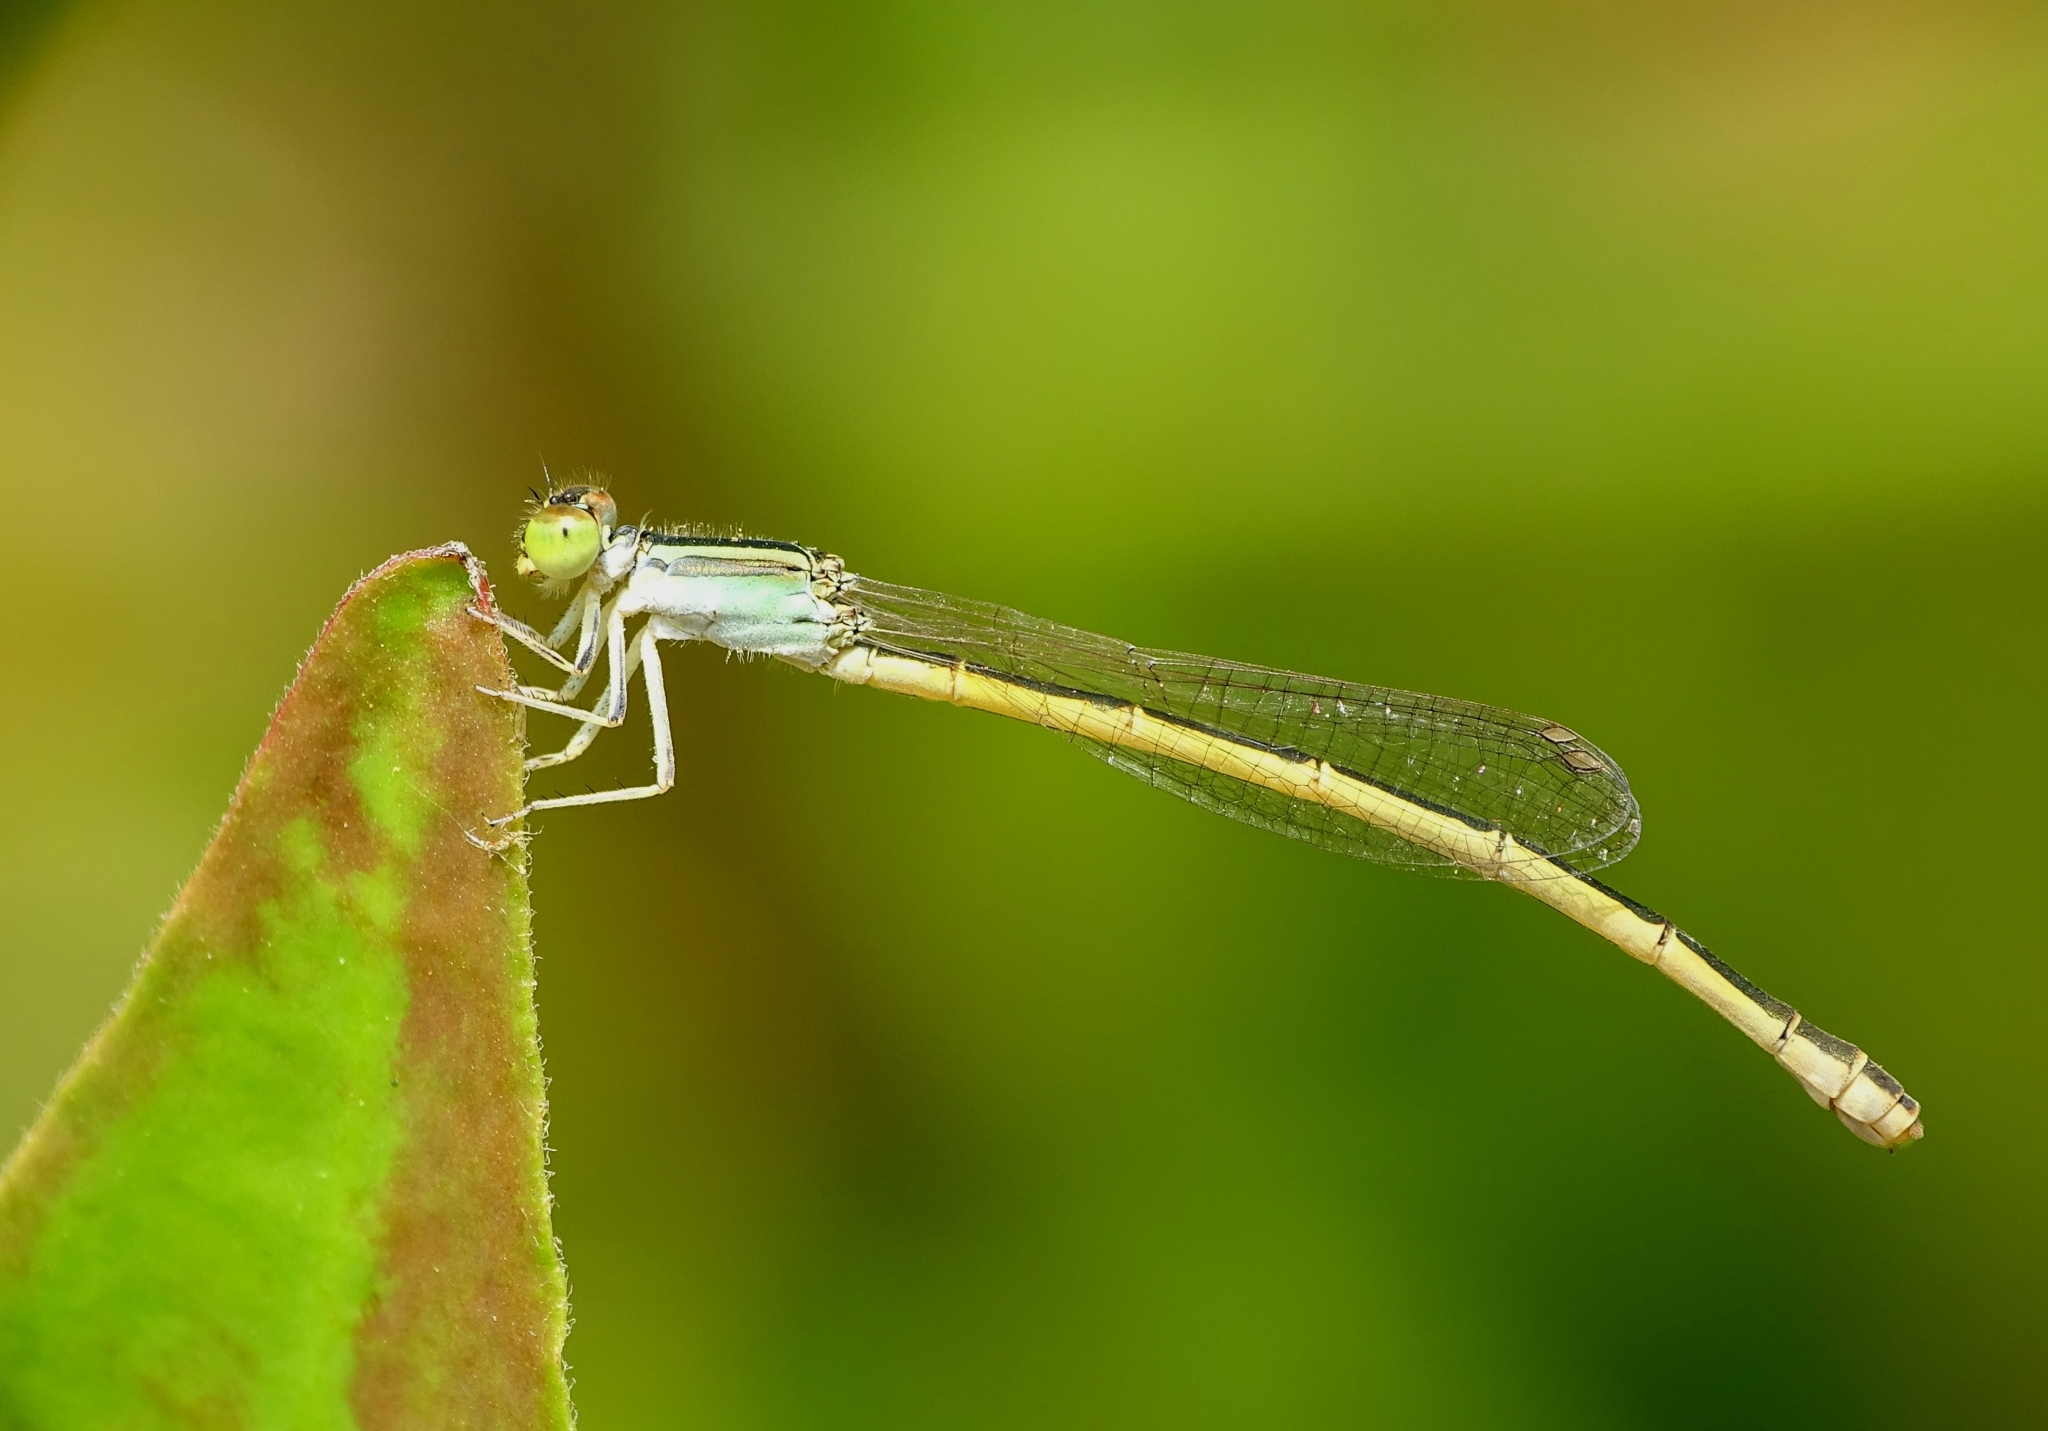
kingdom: Animalia
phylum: Arthropoda
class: Insecta
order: Odonata
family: Coenagrionidae
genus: Ischnura
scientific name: Ischnura rubilio
